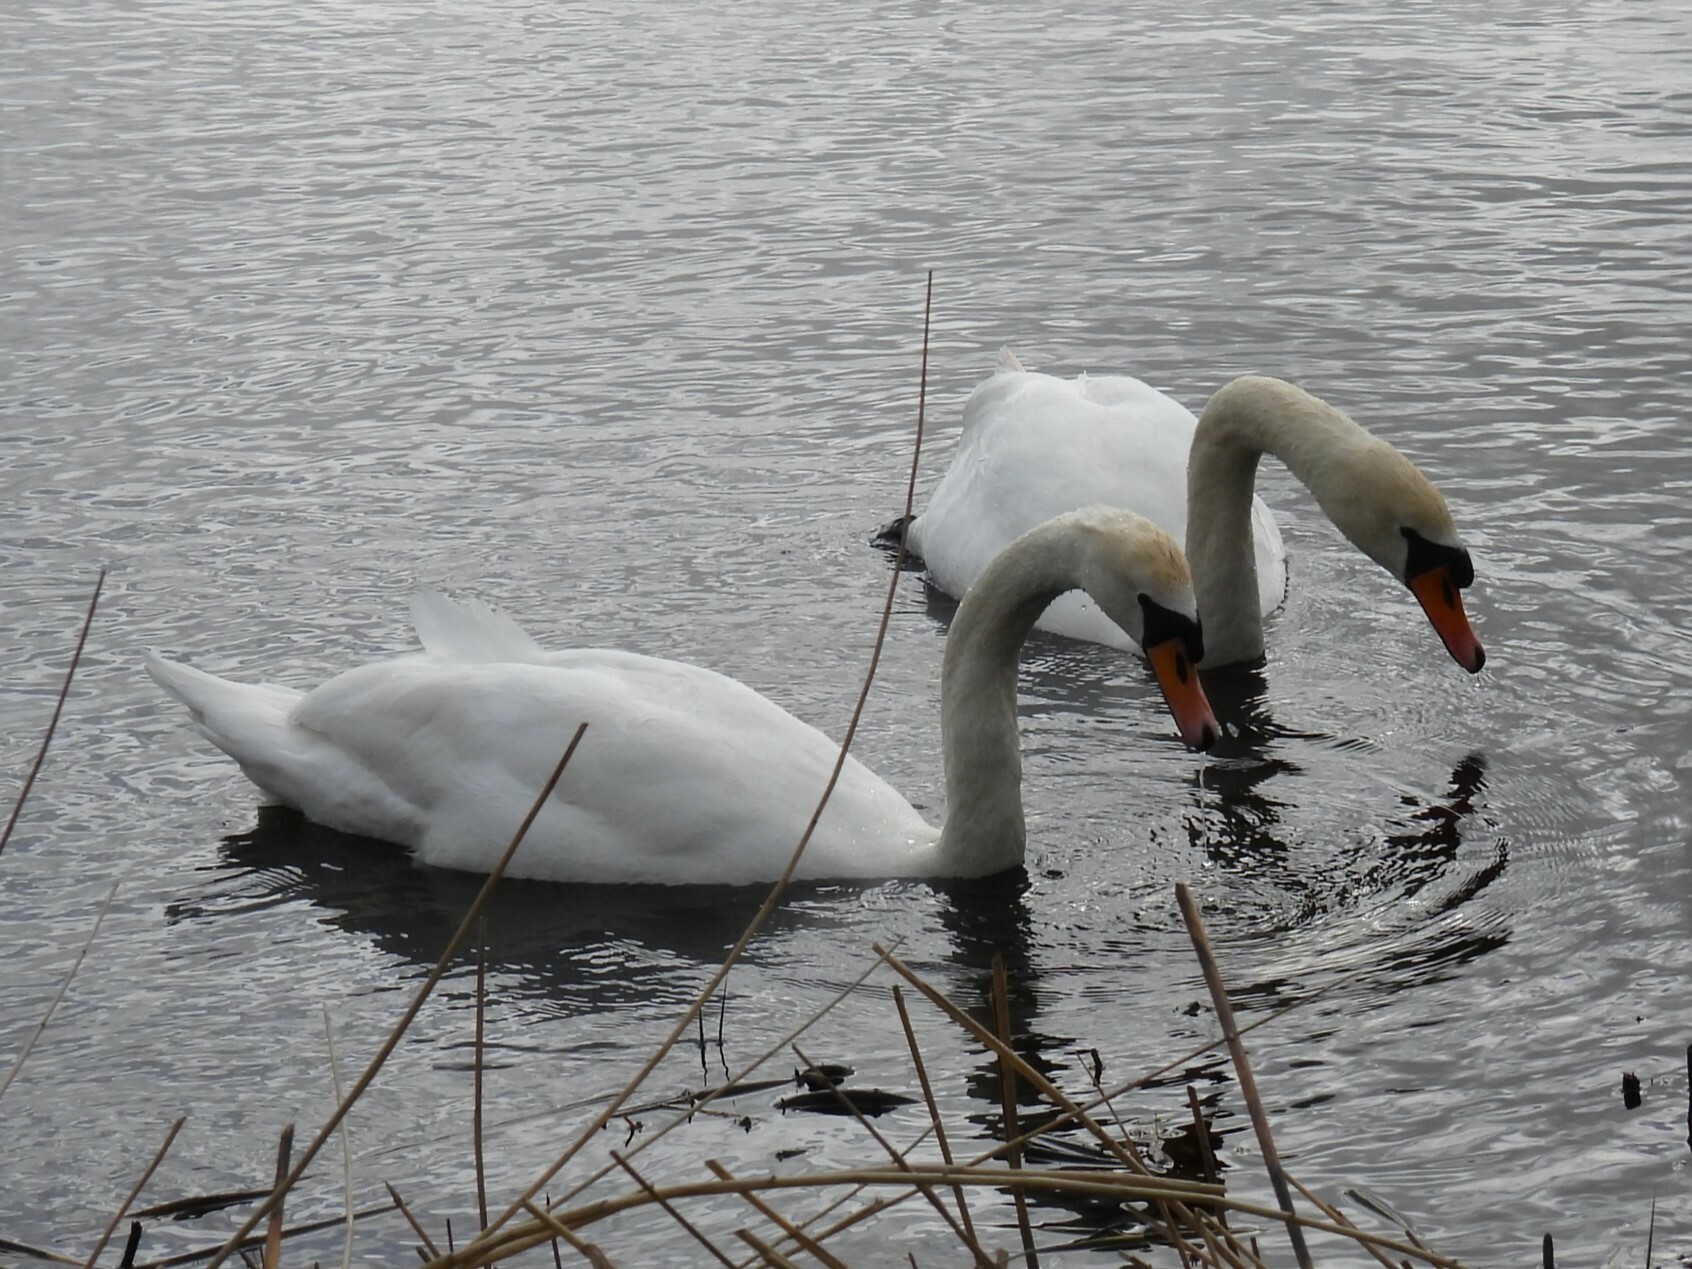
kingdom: Animalia
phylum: Chordata
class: Aves
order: Anseriformes
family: Anatidae
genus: Cygnus
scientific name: Cygnus olor
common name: Mute swan
